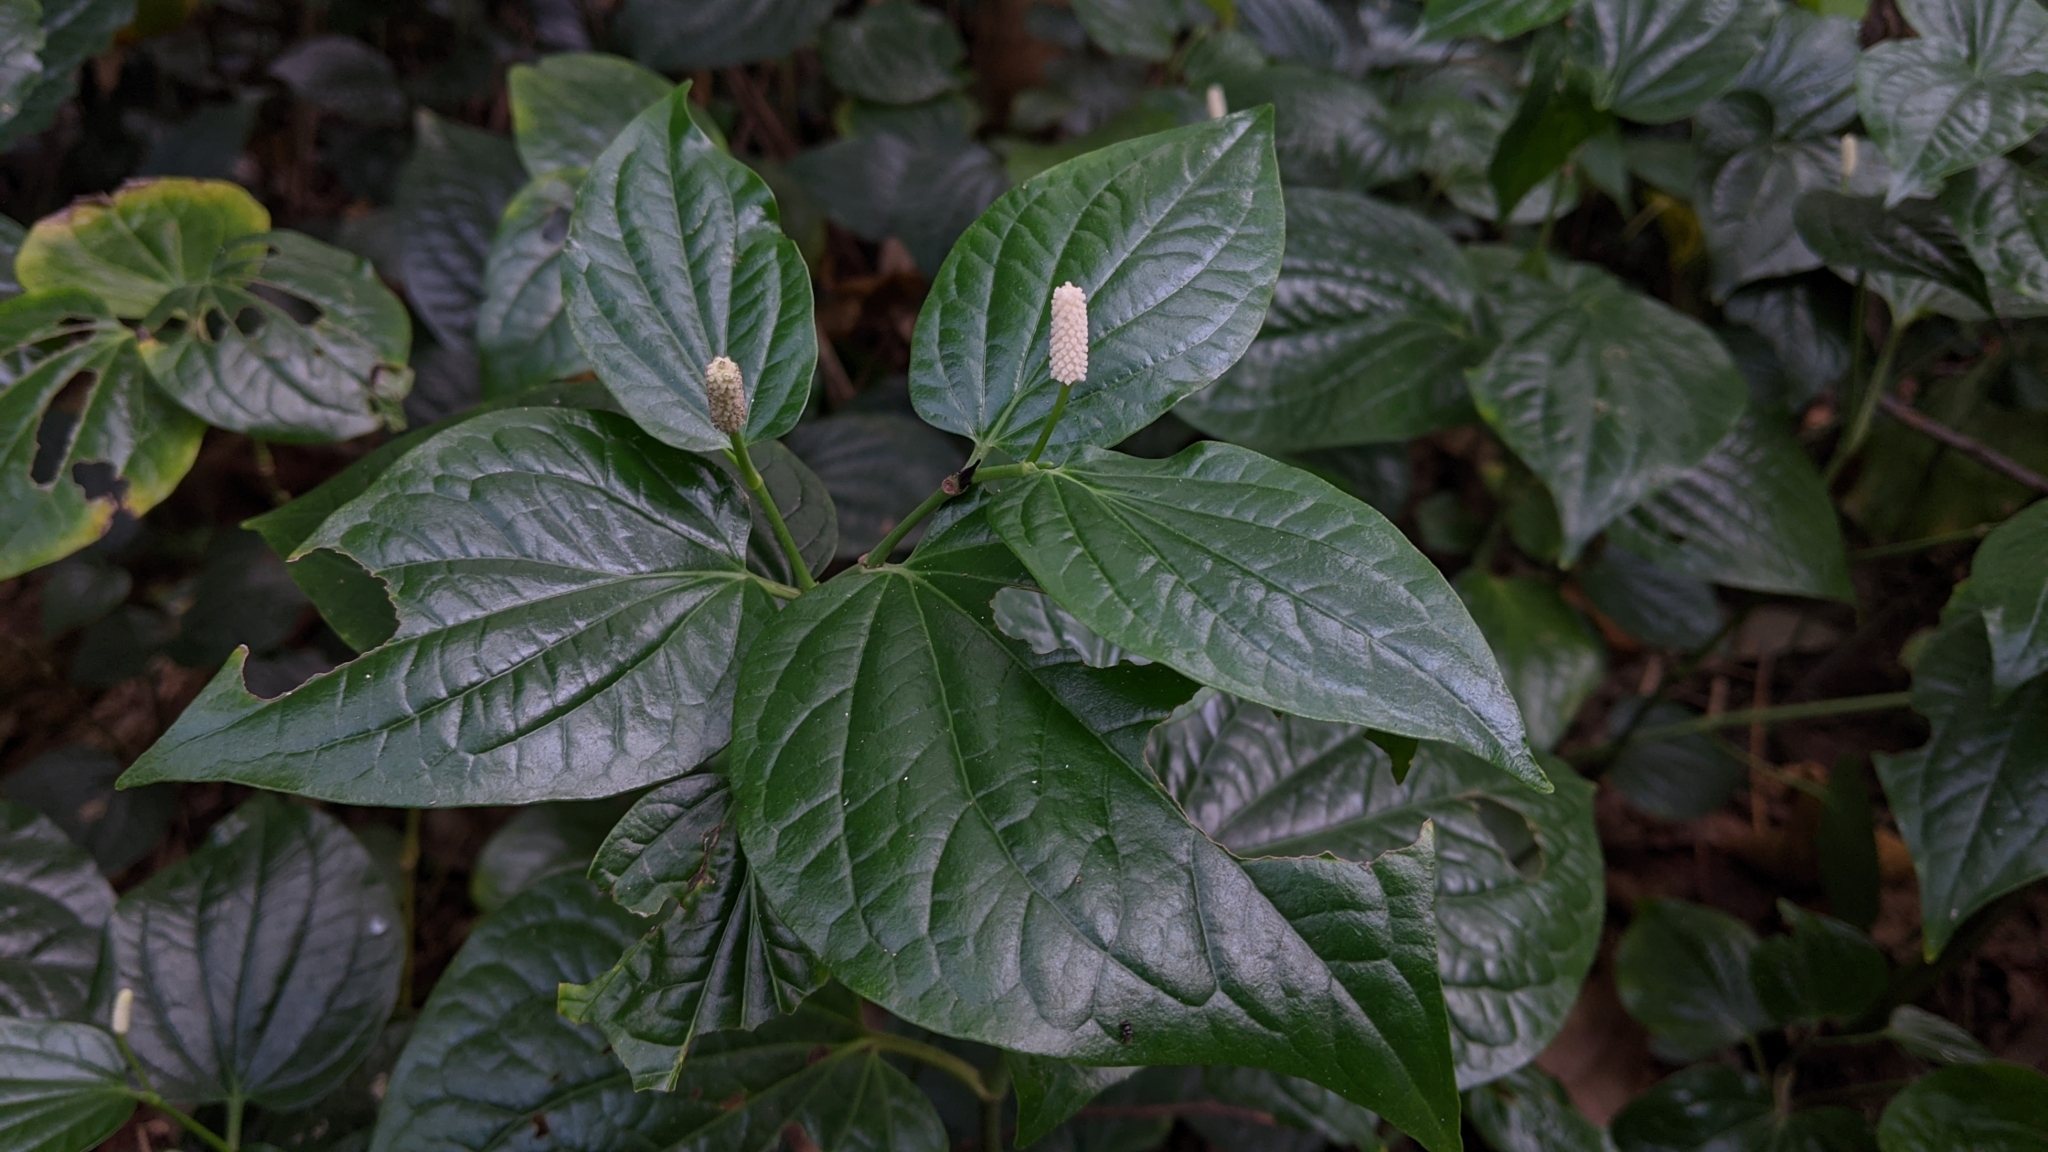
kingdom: Plantae
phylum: Tracheophyta
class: Magnoliopsida
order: Piperales
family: Piperaceae
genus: Piper
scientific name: Piper sarmentosum
